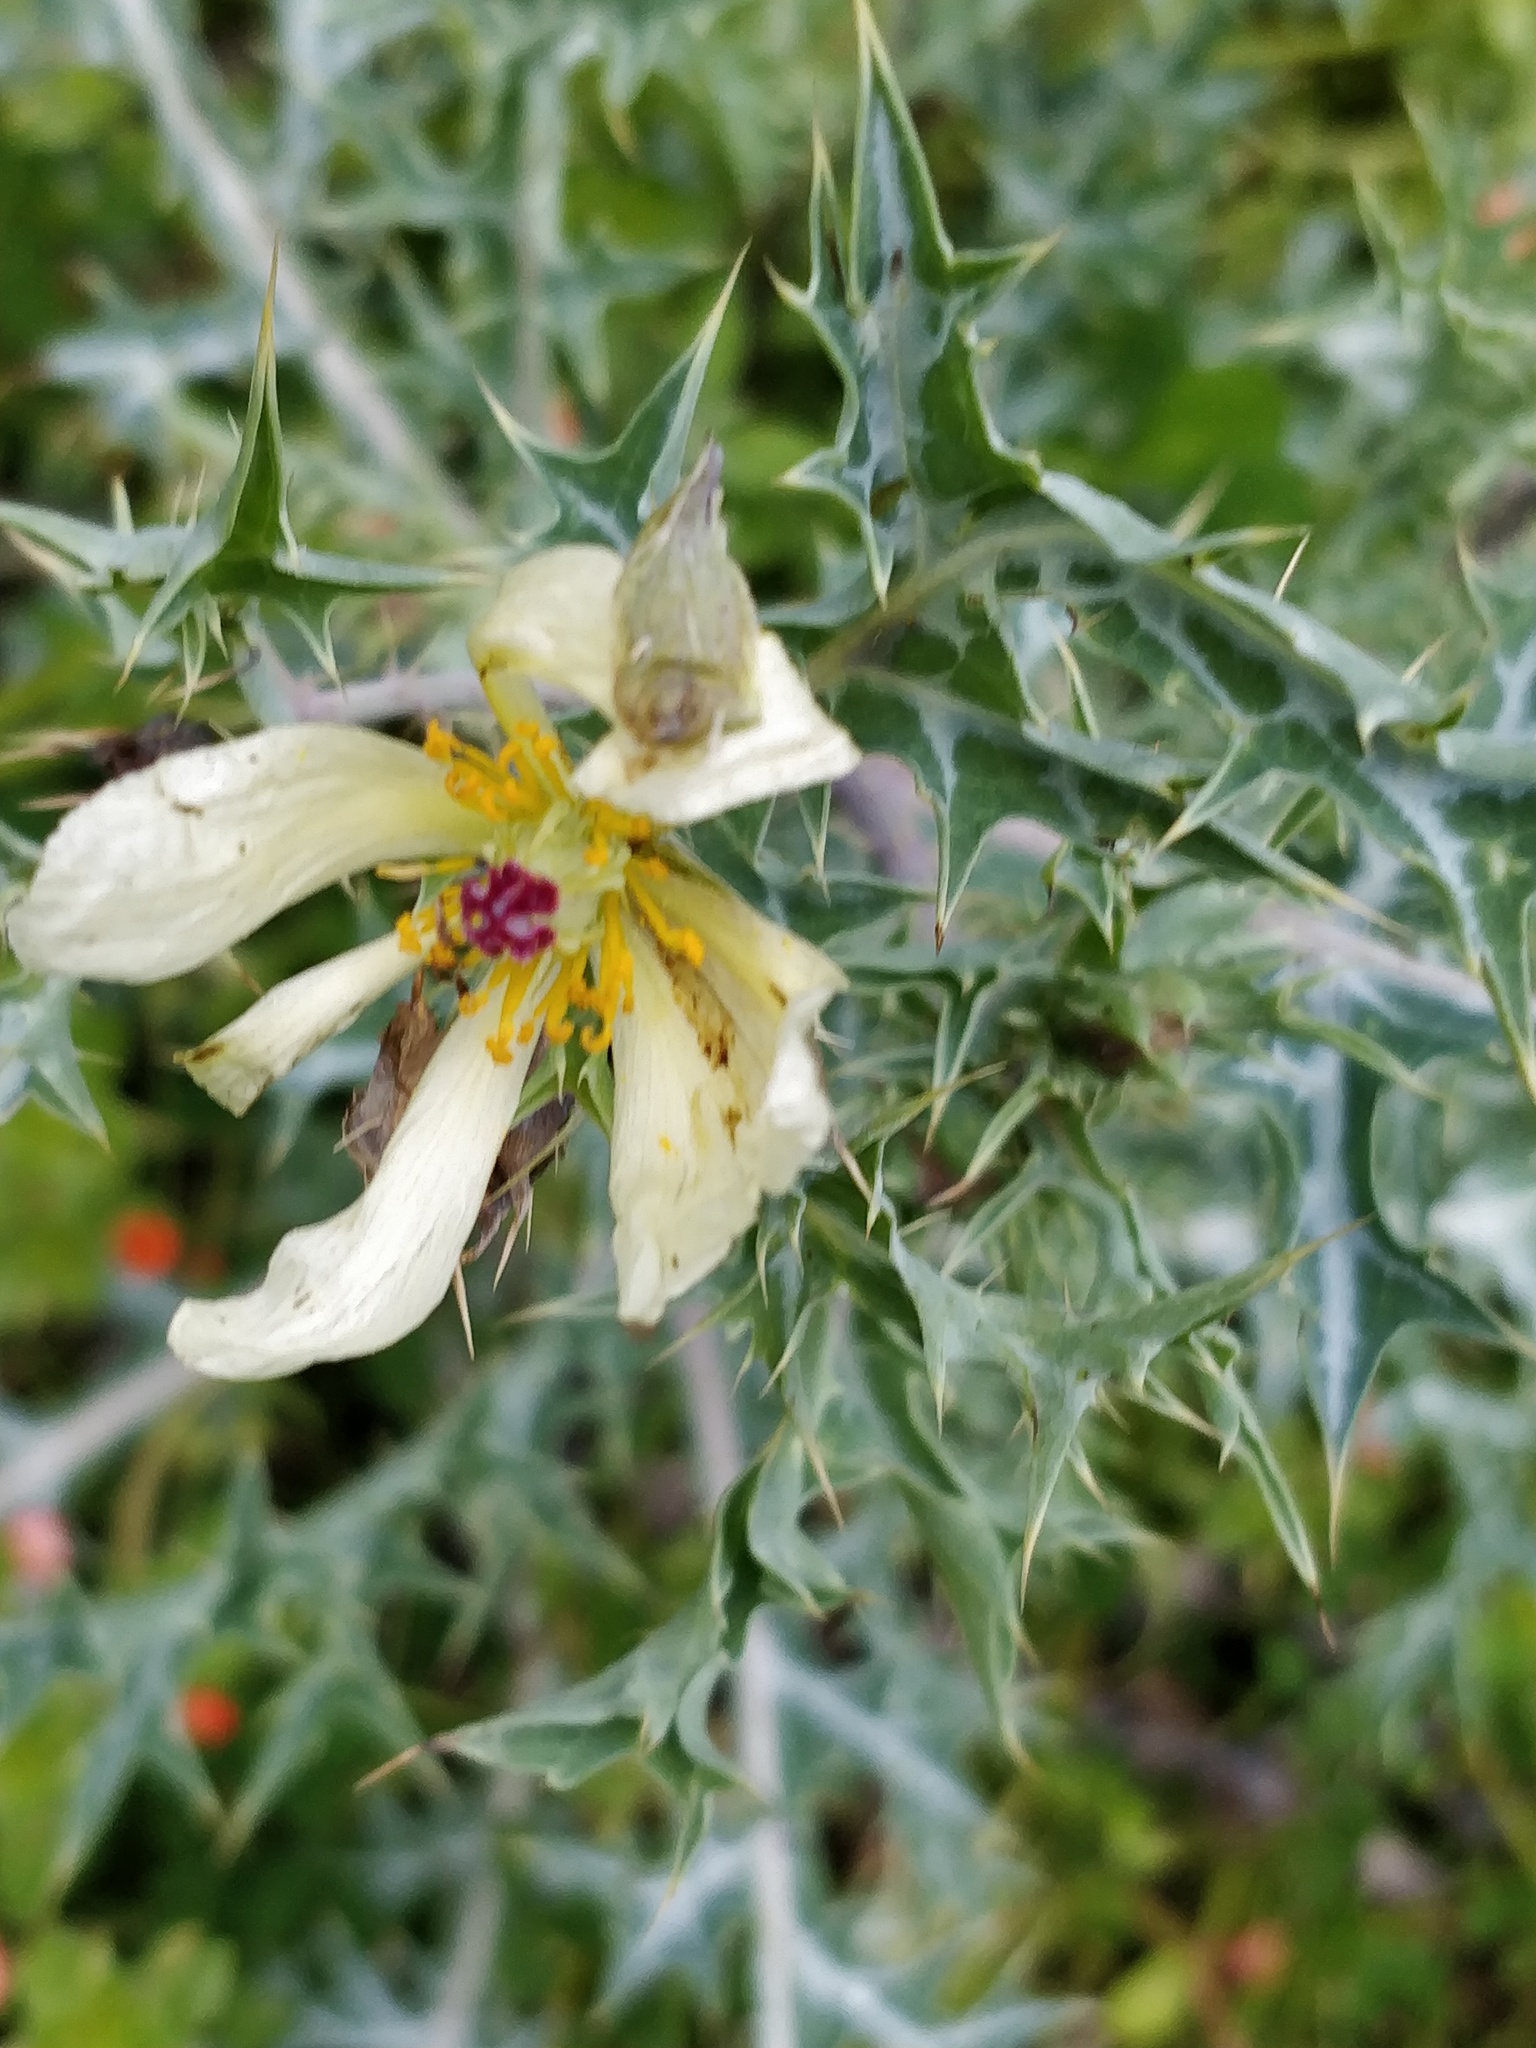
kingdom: Plantae
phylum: Tracheophyta
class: Magnoliopsida
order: Ranunculales
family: Papaveraceae
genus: Argemone
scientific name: Argemone ochroleuca
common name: White-flower mexican-poppy
